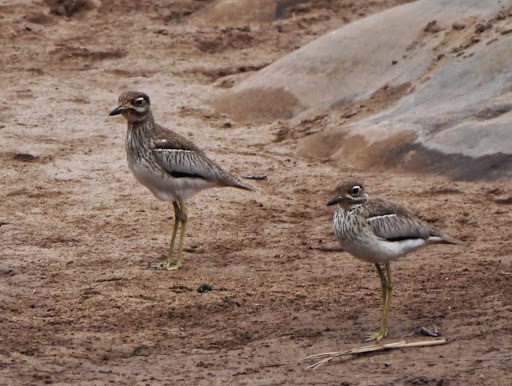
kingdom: Animalia
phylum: Chordata
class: Aves
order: Charadriiformes
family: Burhinidae
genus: Burhinus
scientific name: Burhinus vermiculatus
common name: Water thick-knee
